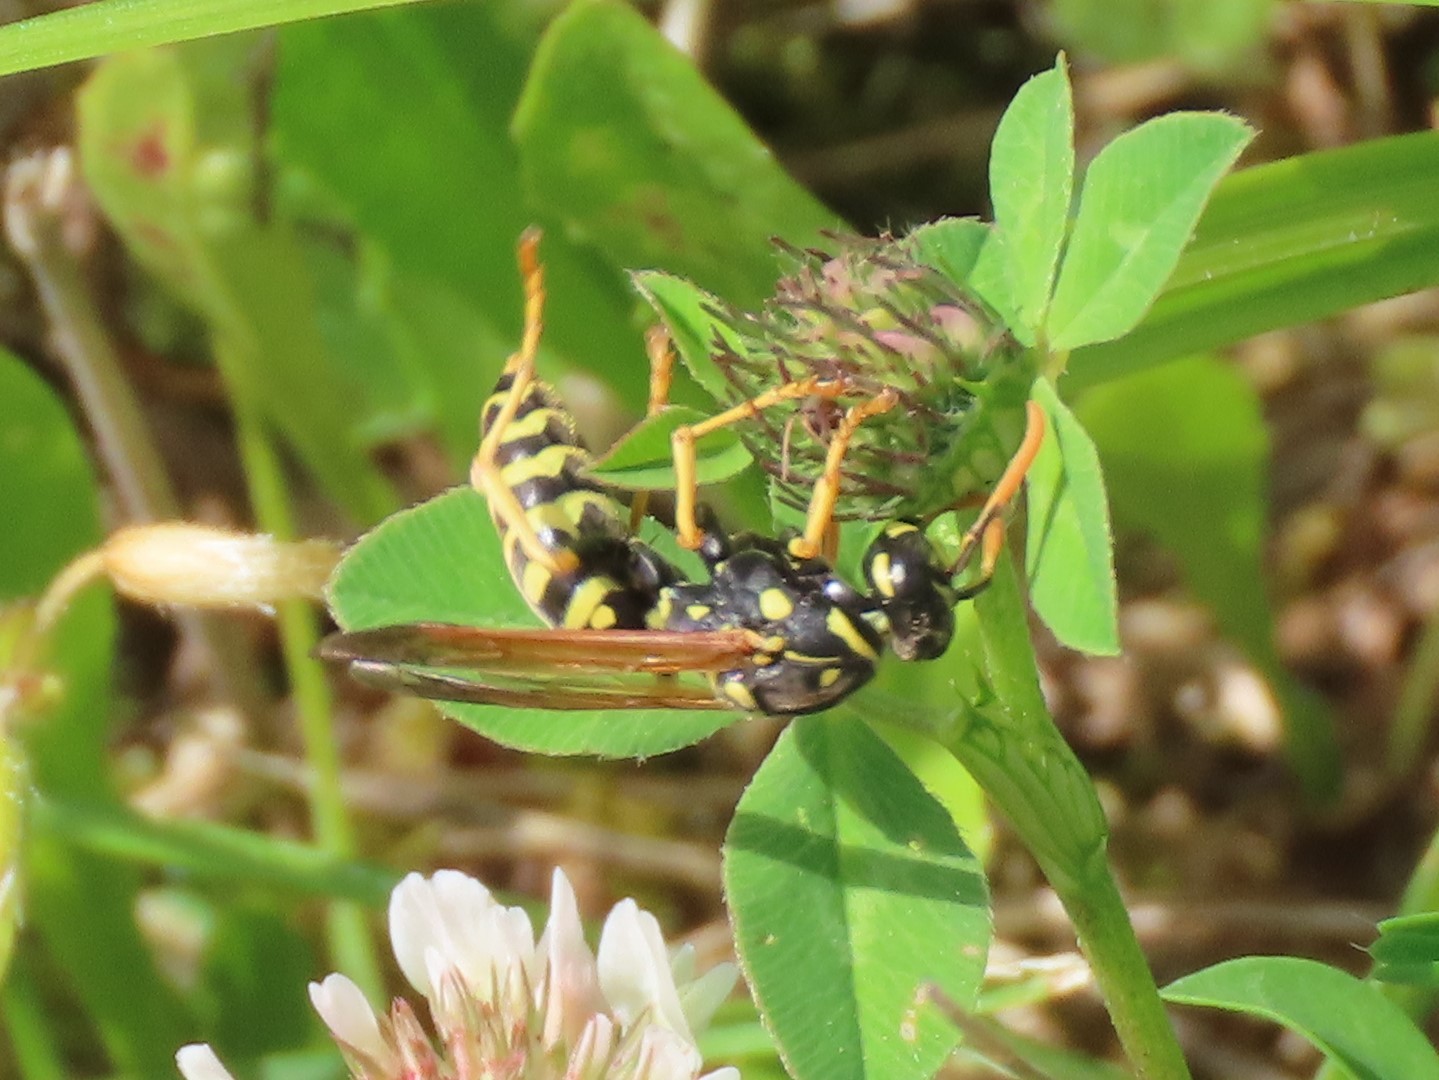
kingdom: Animalia
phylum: Arthropoda
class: Insecta
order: Hymenoptera
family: Eumenidae
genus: Polistes
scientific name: Polistes dominula
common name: Paper wasp
